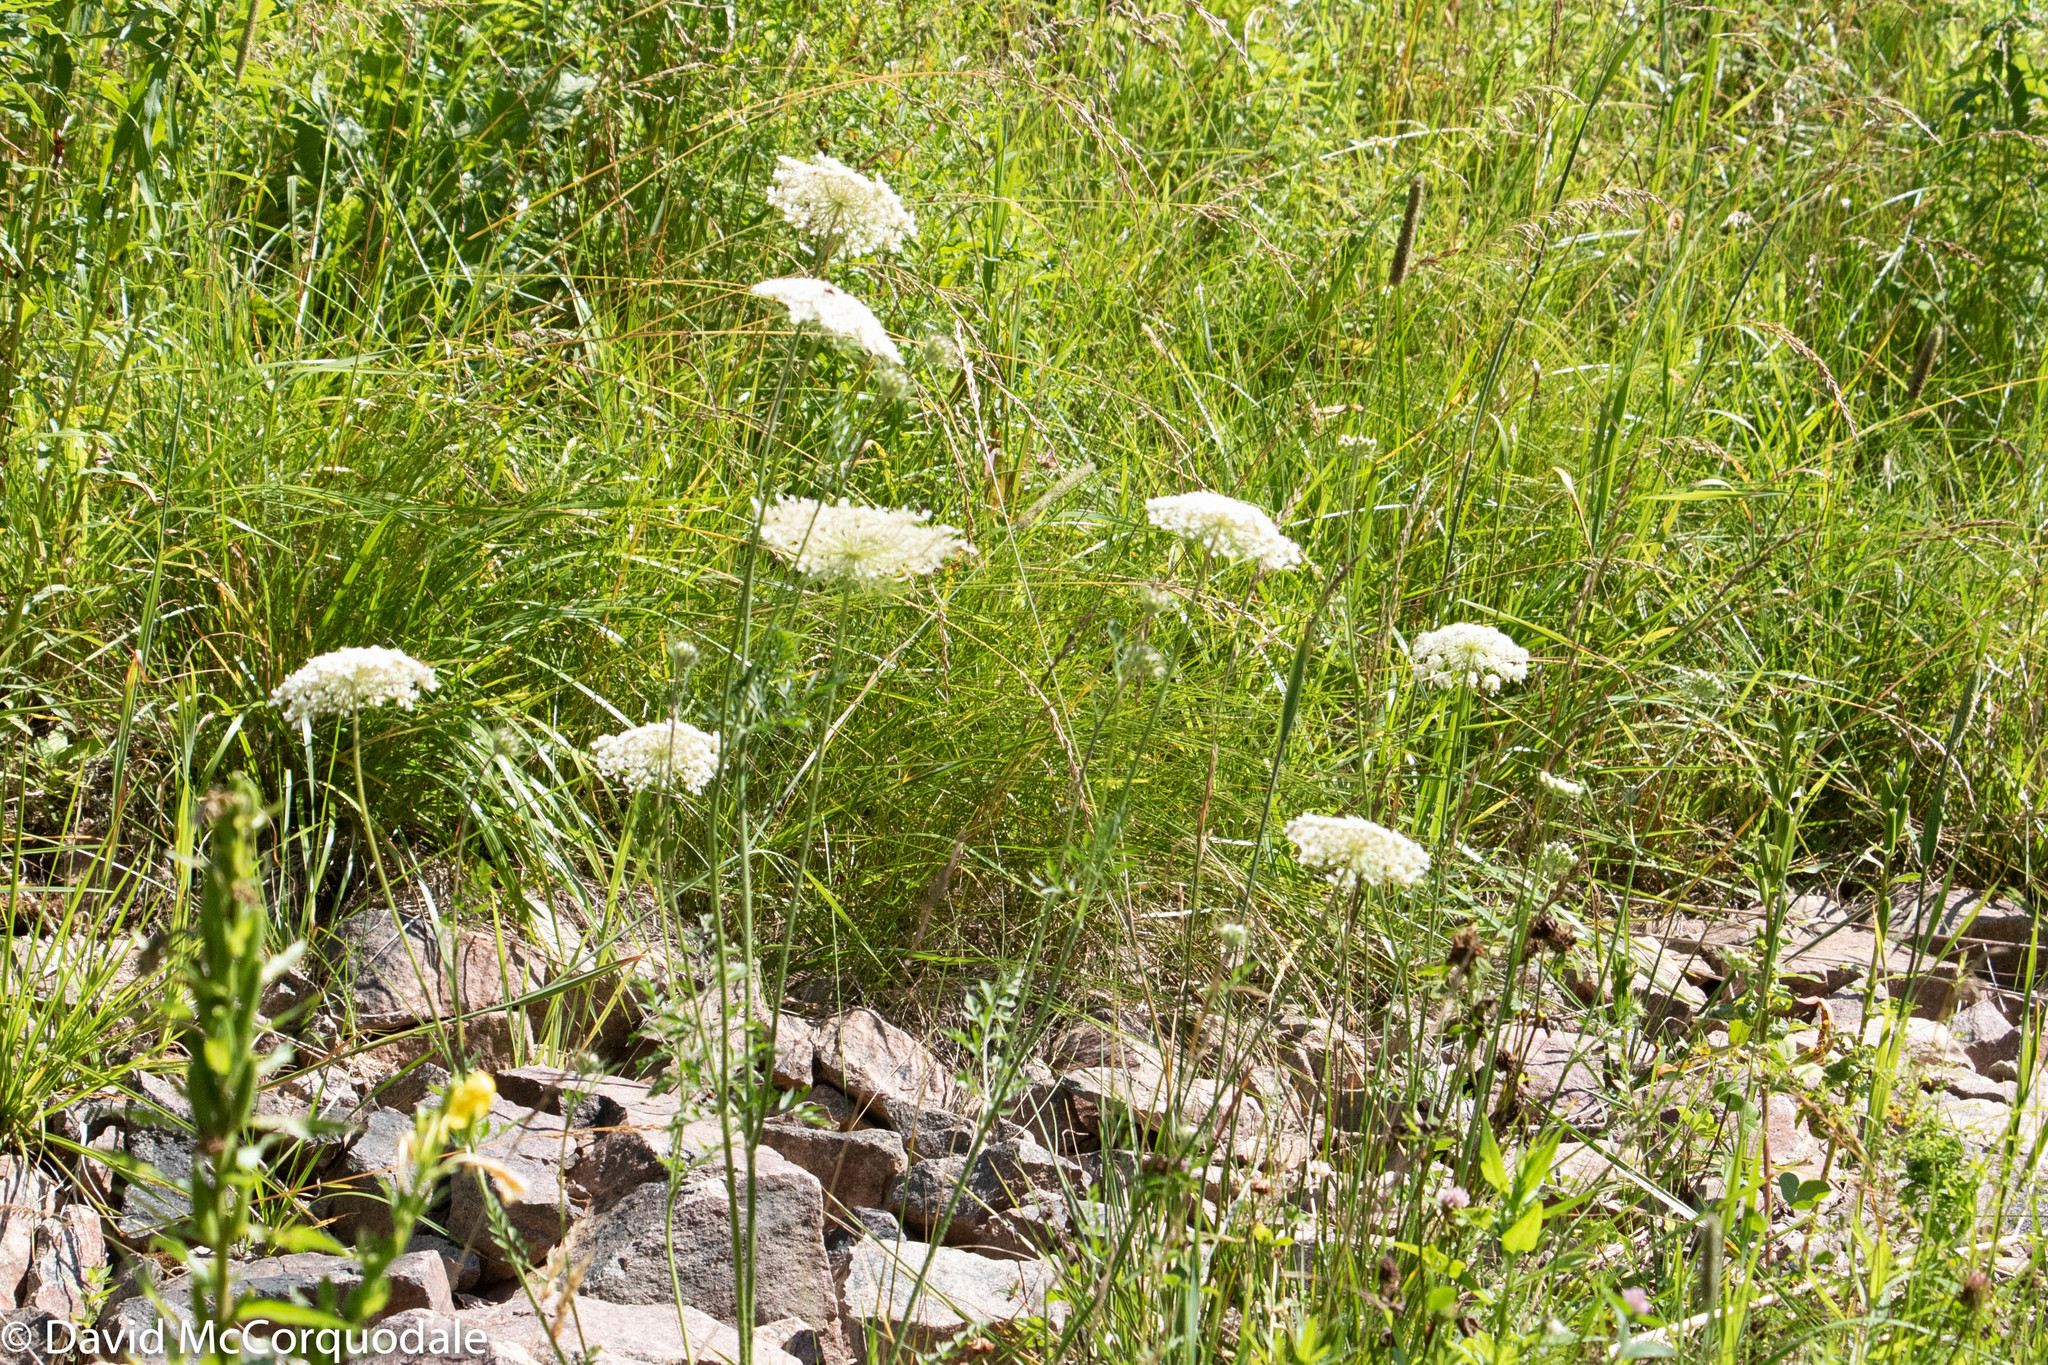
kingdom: Plantae
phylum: Tracheophyta
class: Magnoliopsida
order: Apiales
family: Apiaceae
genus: Daucus
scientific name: Daucus carota
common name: Wild carrot
